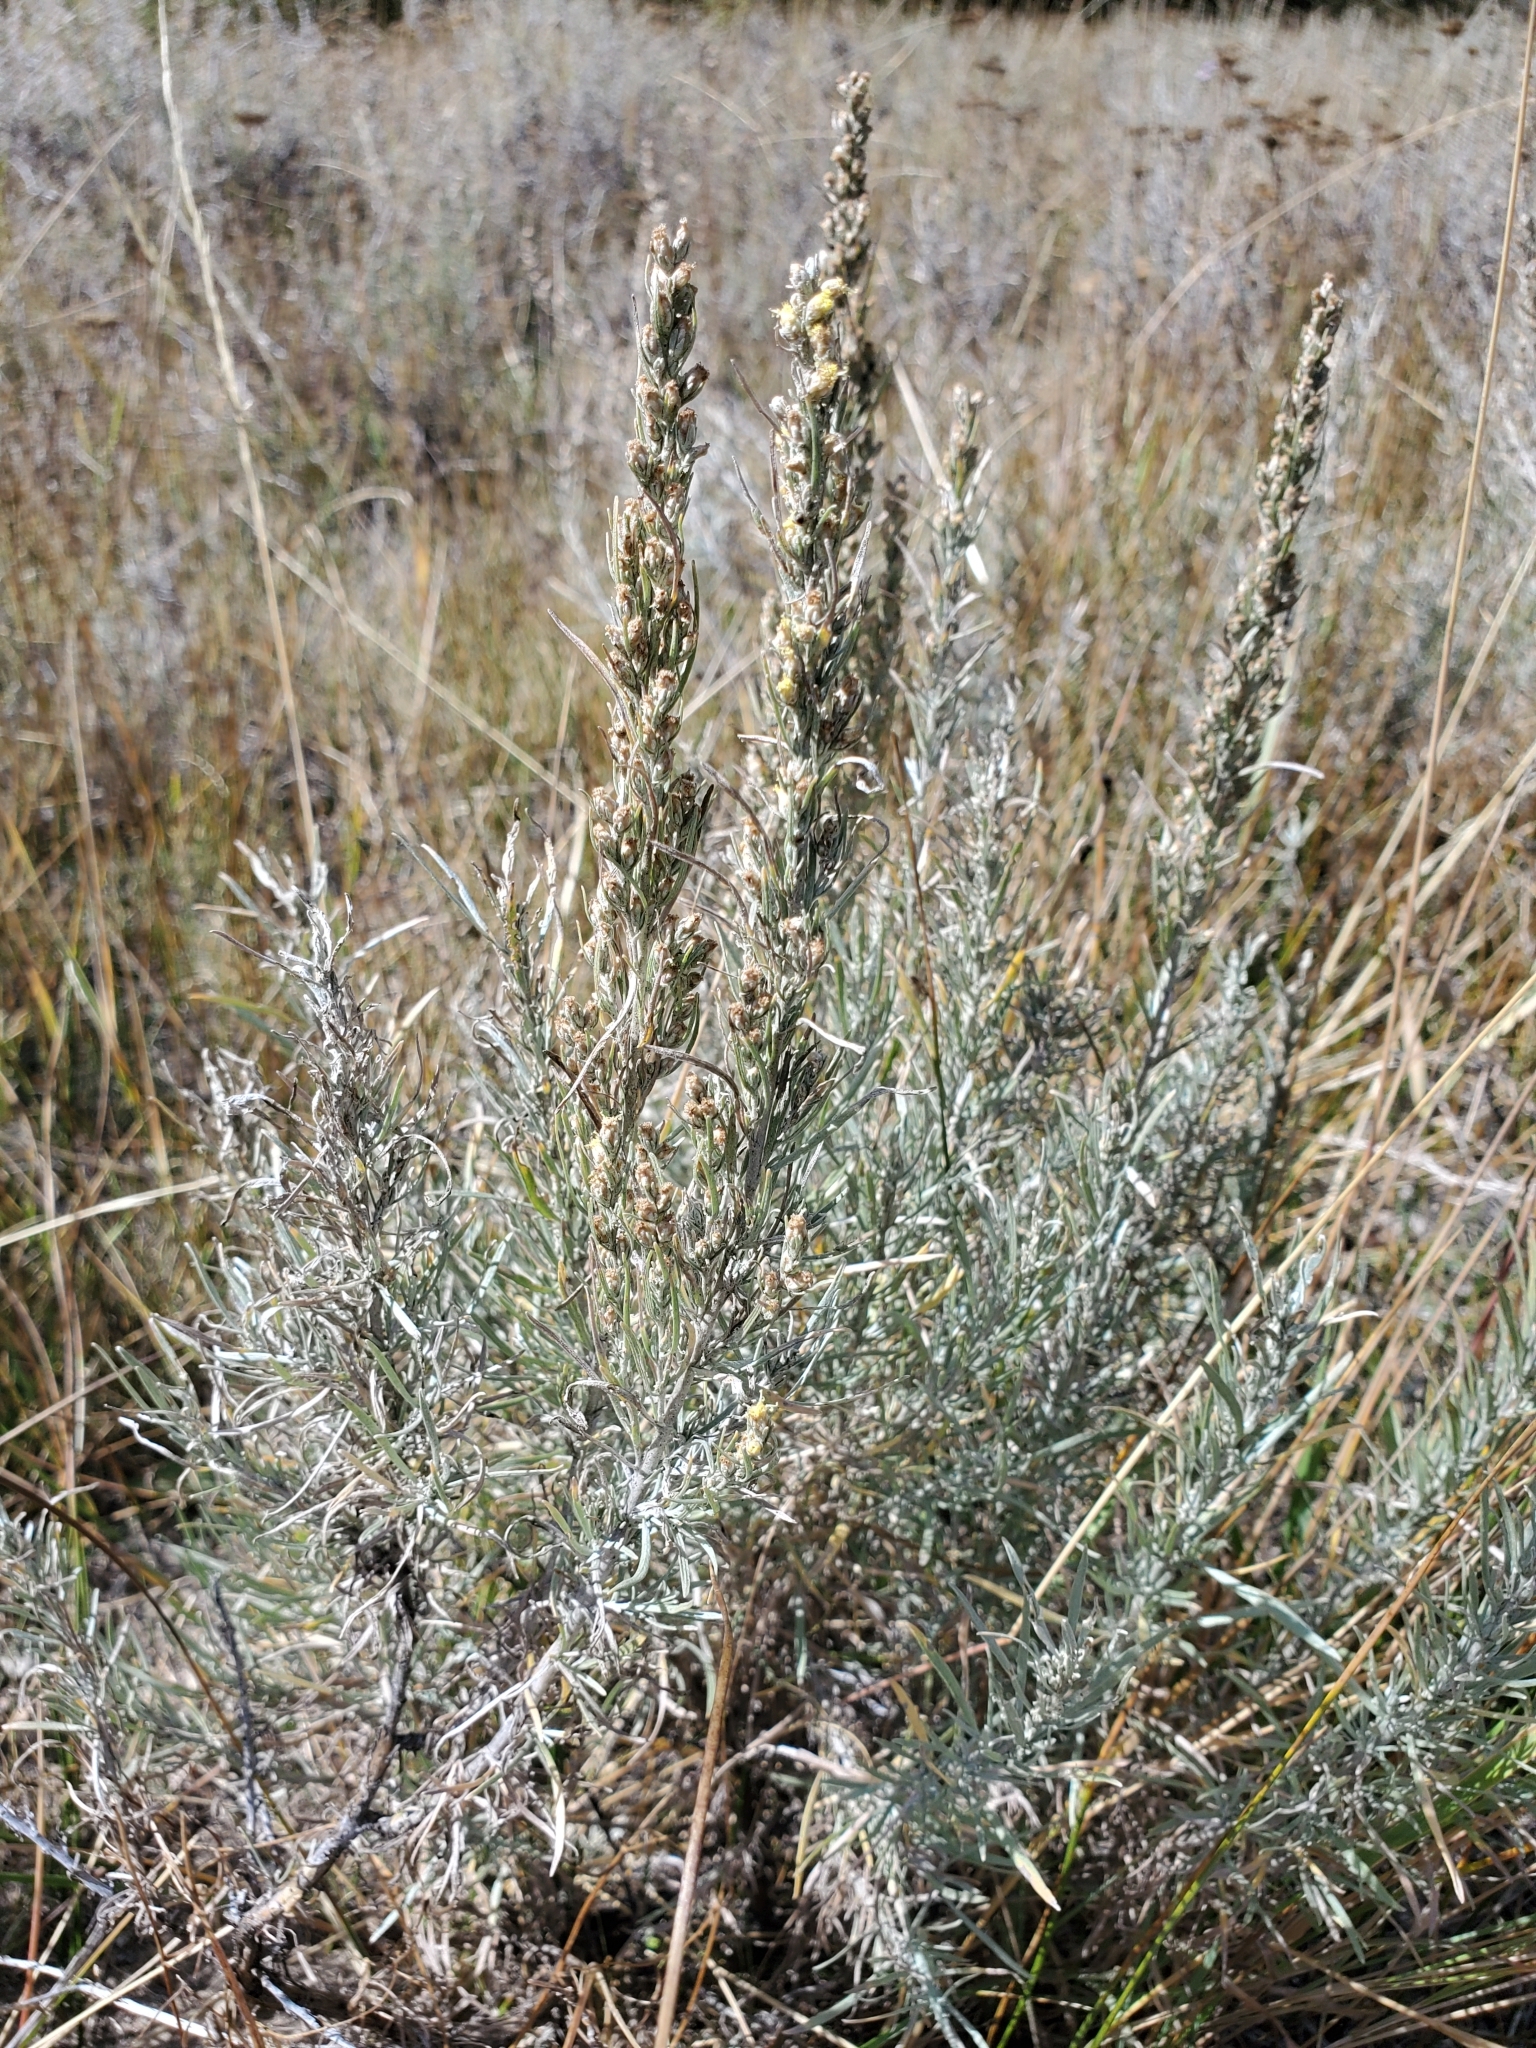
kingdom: Plantae
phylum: Tracheophyta
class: Magnoliopsida
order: Asterales
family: Asteraceae
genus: Artemisia
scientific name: Artemisia cana
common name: Silver sagebrush
